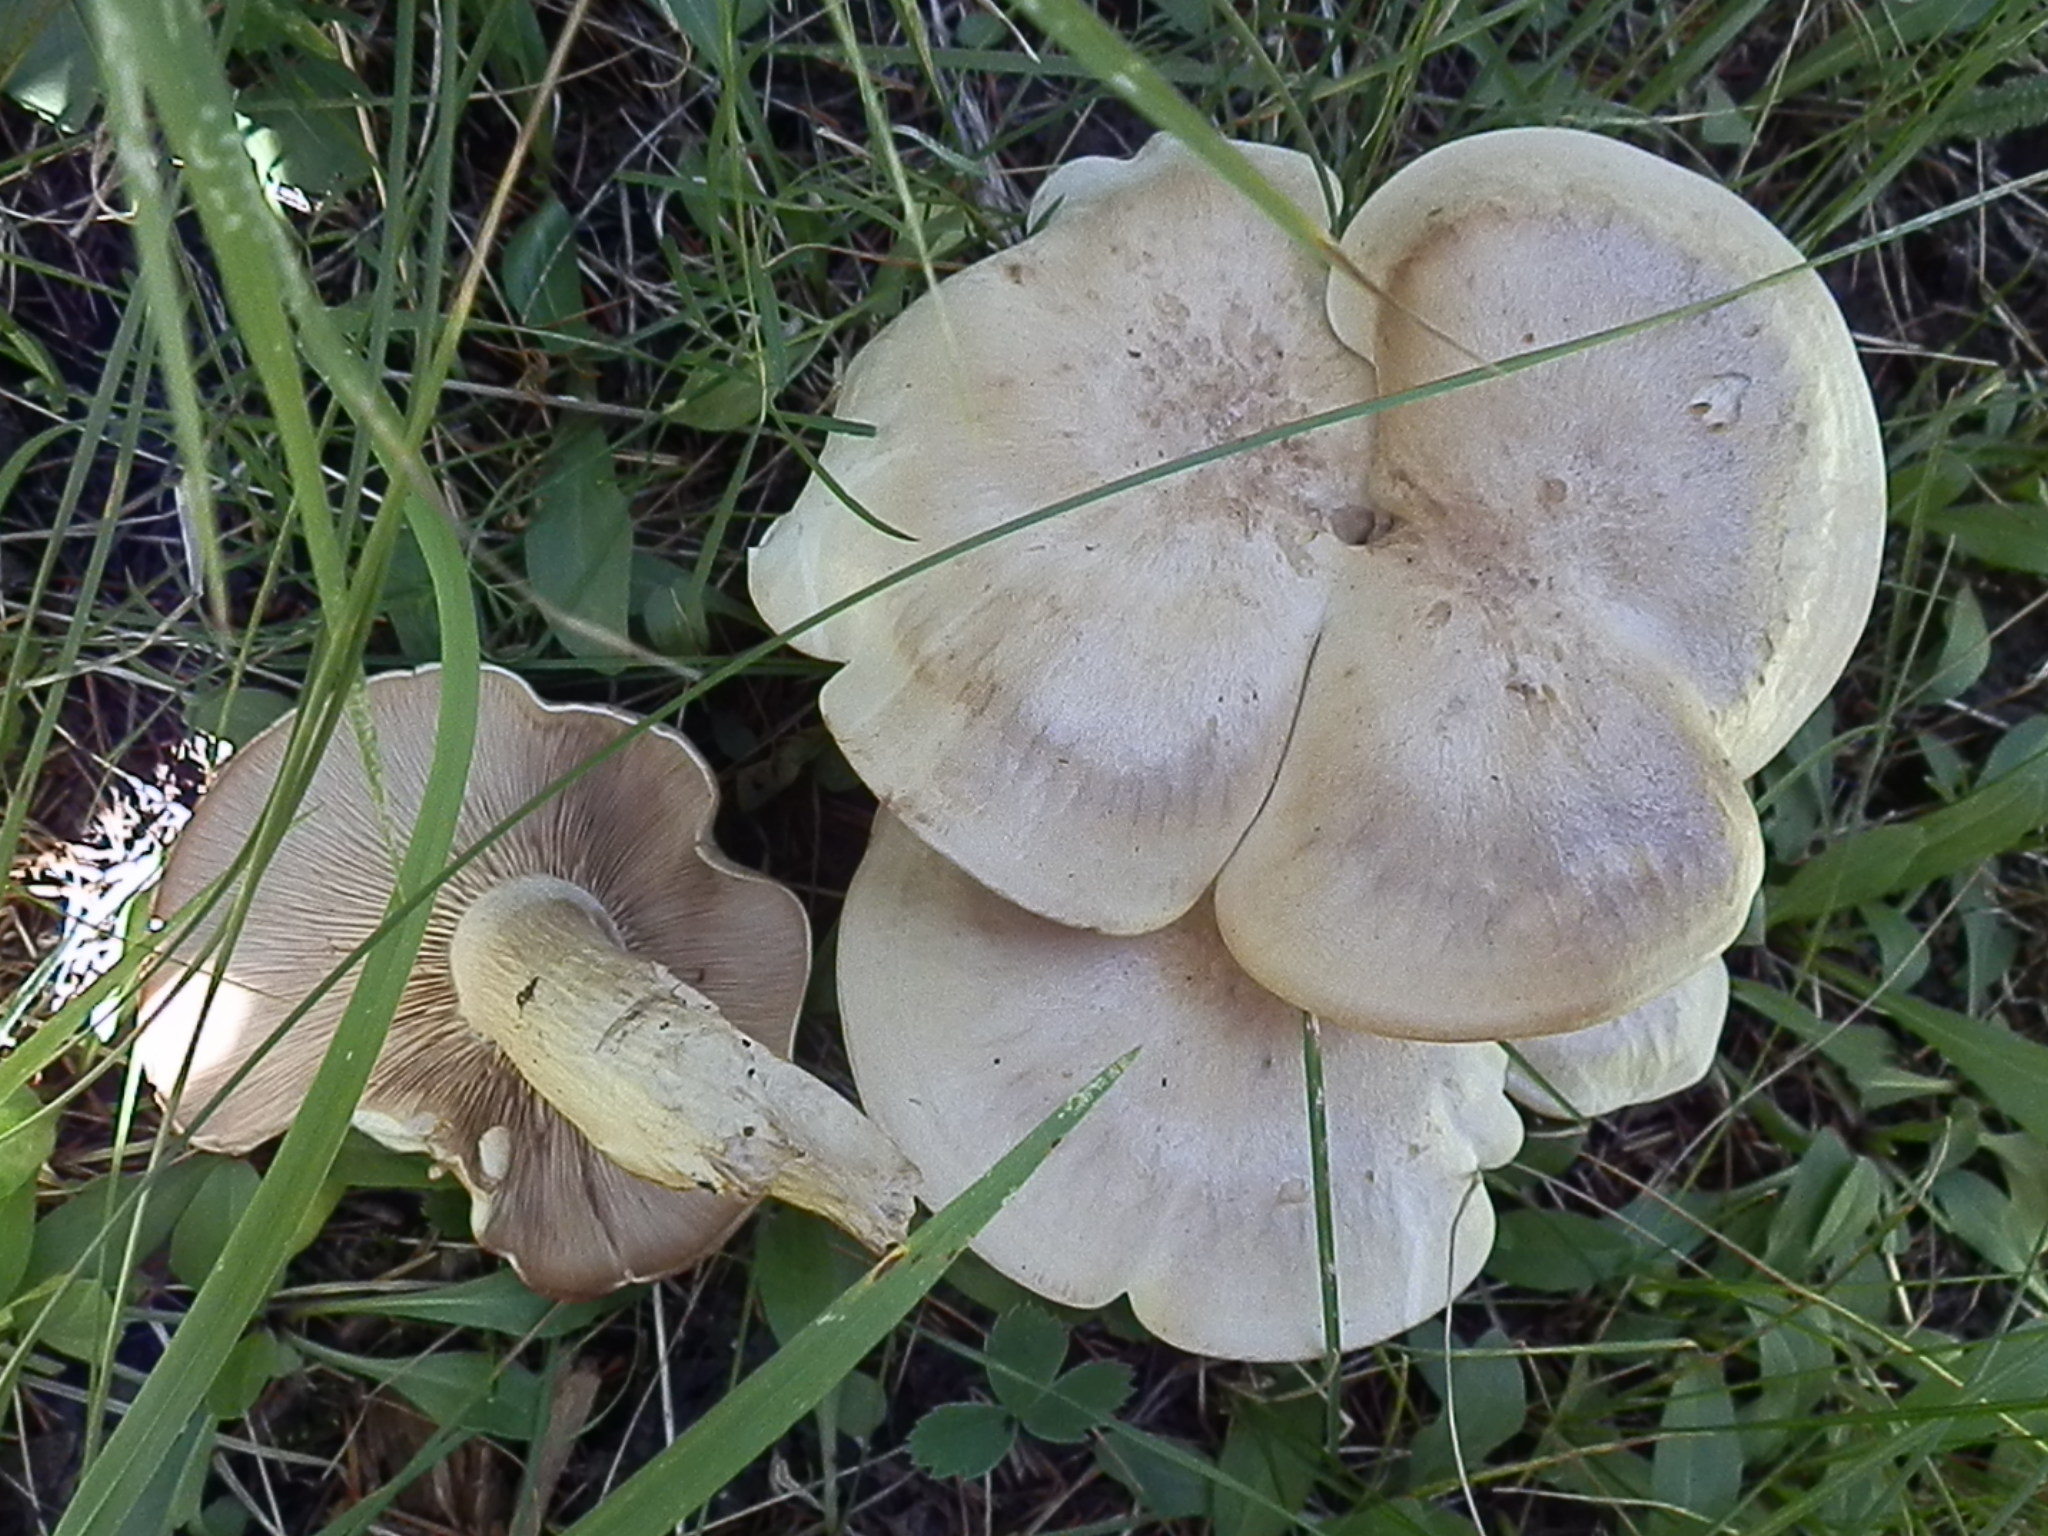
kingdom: Fungi
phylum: Basidiomycota
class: Agaricomycetes
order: Agaricales
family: Tricholomataceae
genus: Lepista
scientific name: Lepista subconnexa
